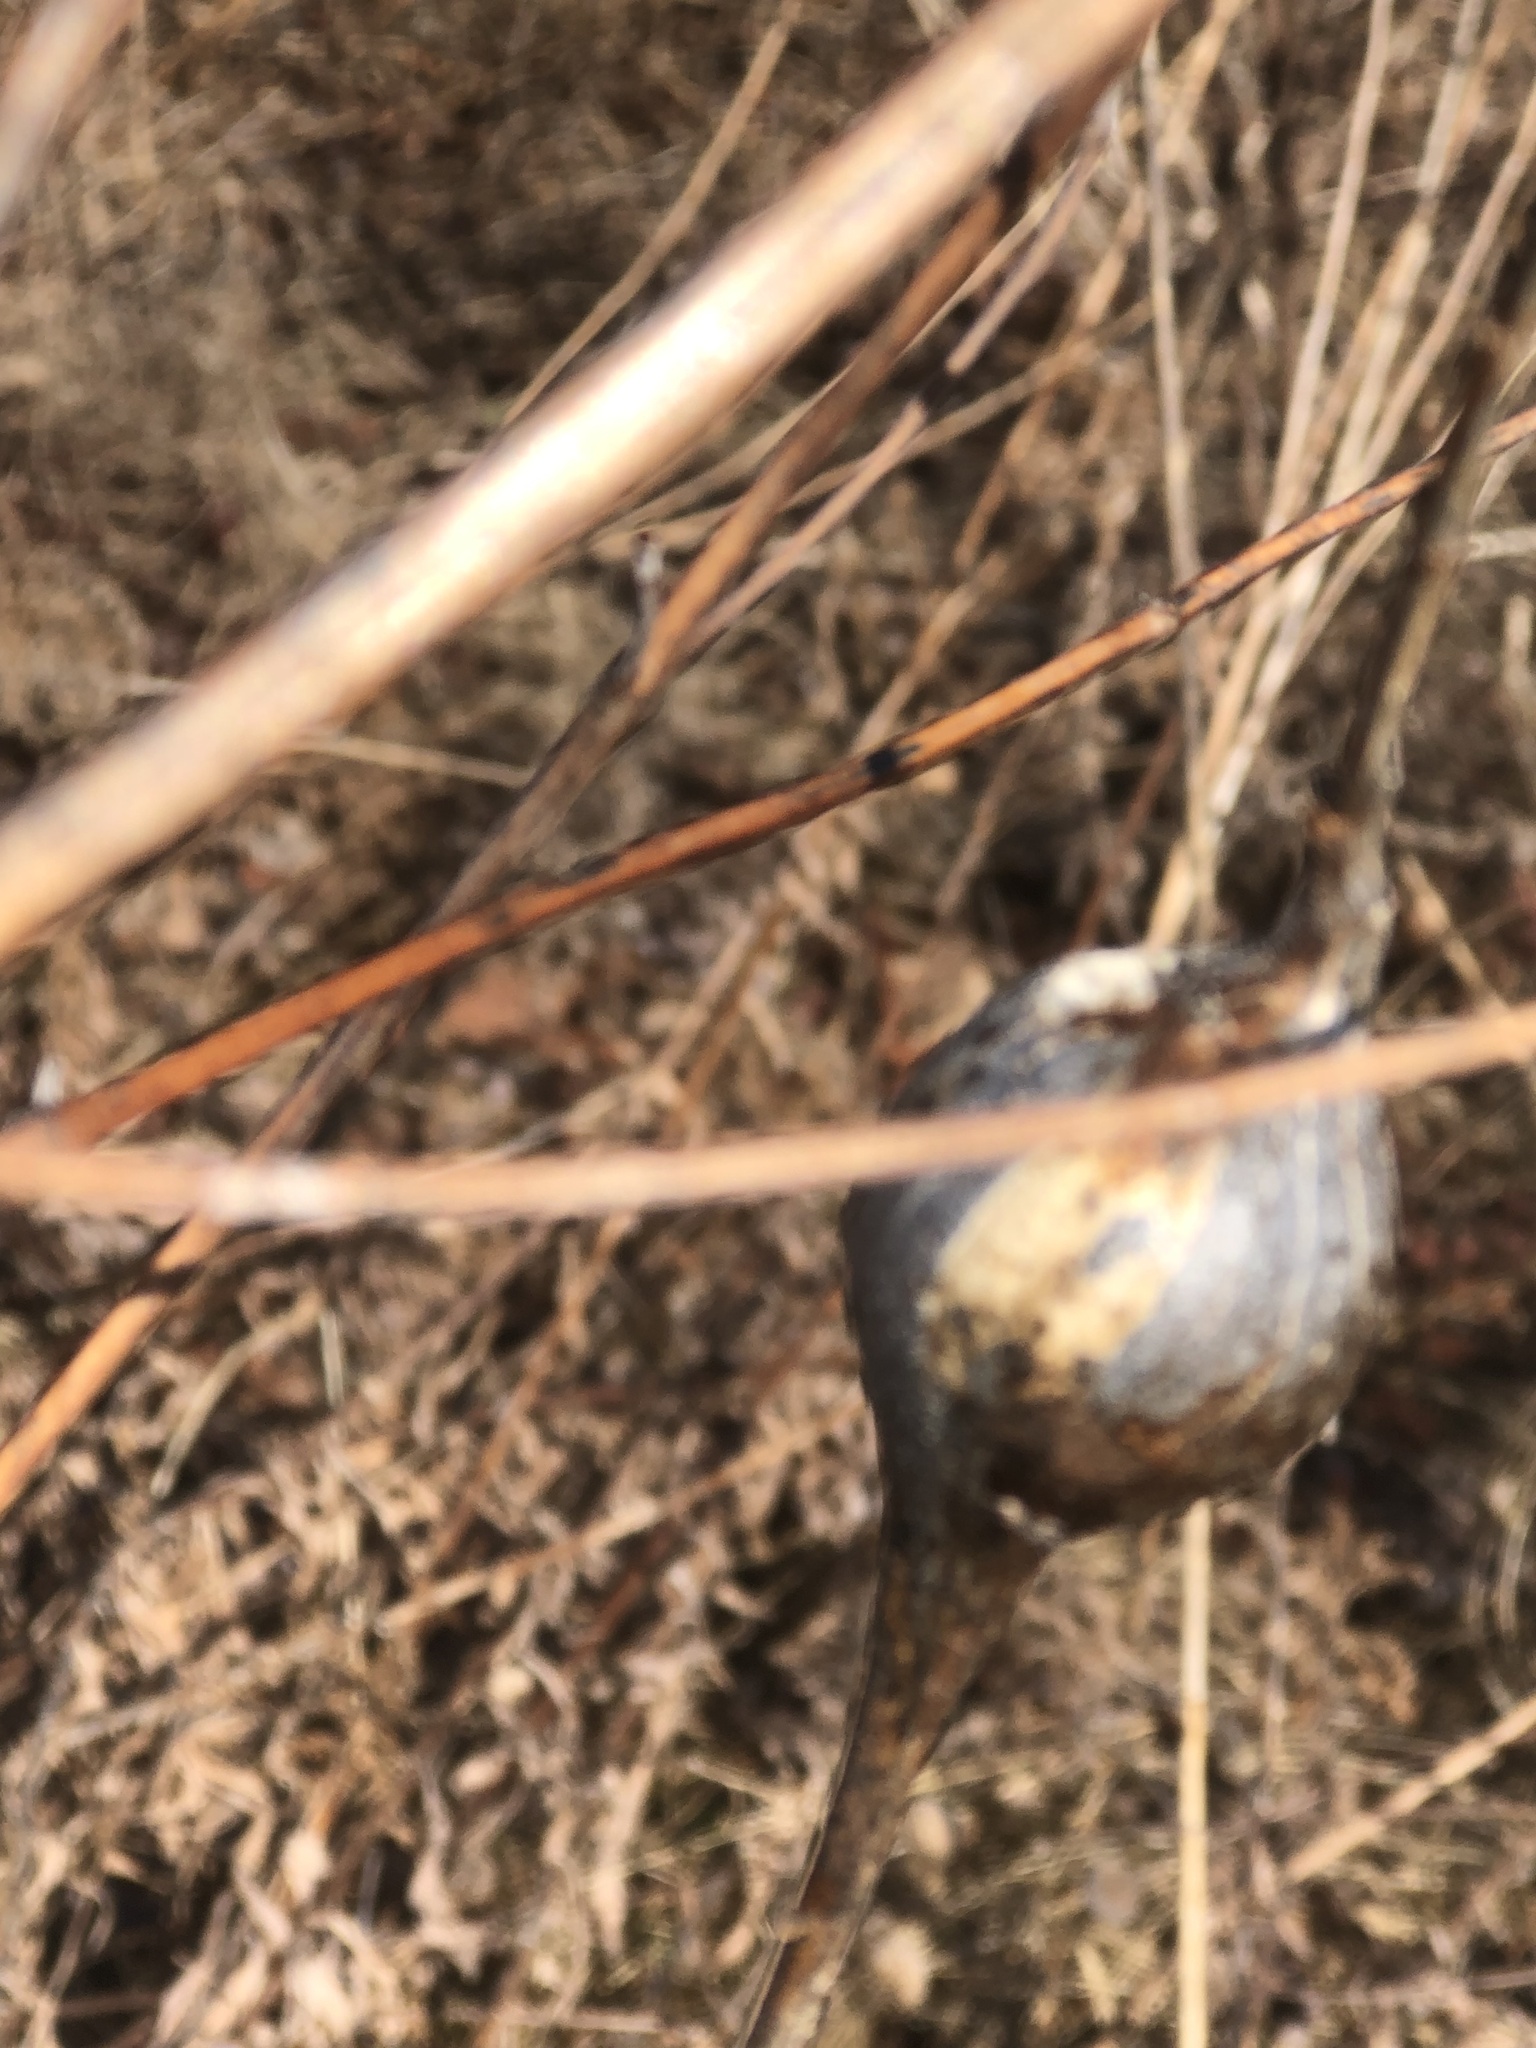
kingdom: Animalia
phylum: Arthropoda
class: Insecta
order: Diptera
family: Tephritidae
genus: Eurosta
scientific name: Eurosta solidaginis
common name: Goldenrod gall fly
